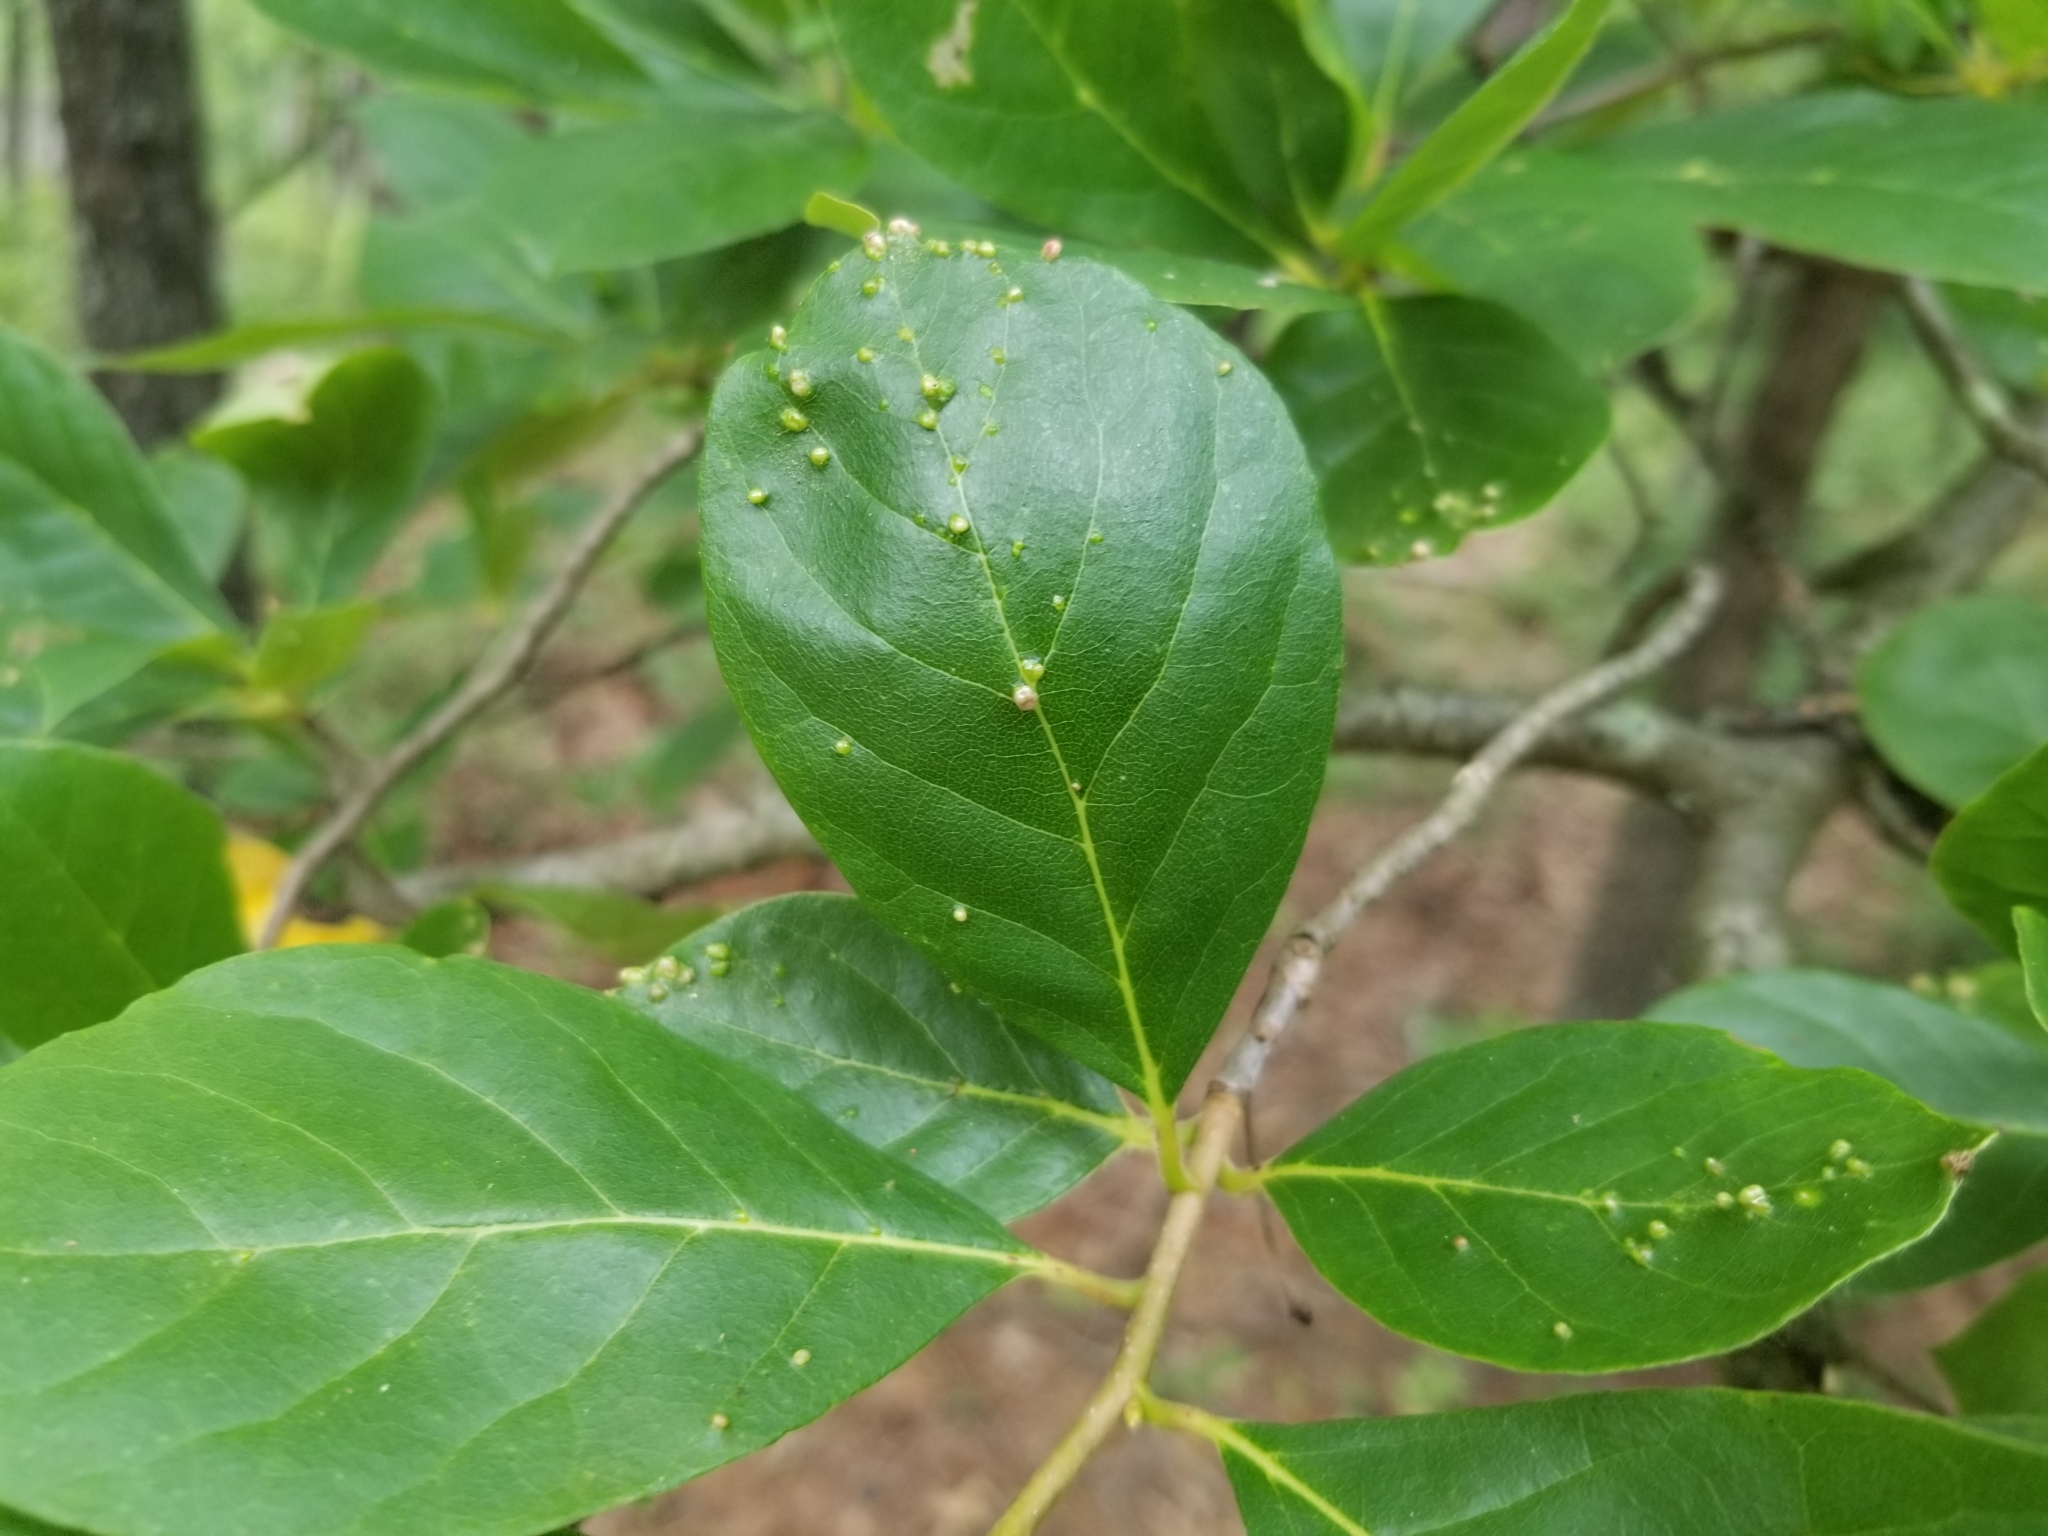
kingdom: Plantae
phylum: Tracheophyta
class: Magnoliopsida
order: Cornales
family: Nyssaceae
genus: Nyssa
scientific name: Nyssa sylvatica
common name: Black tupelo
